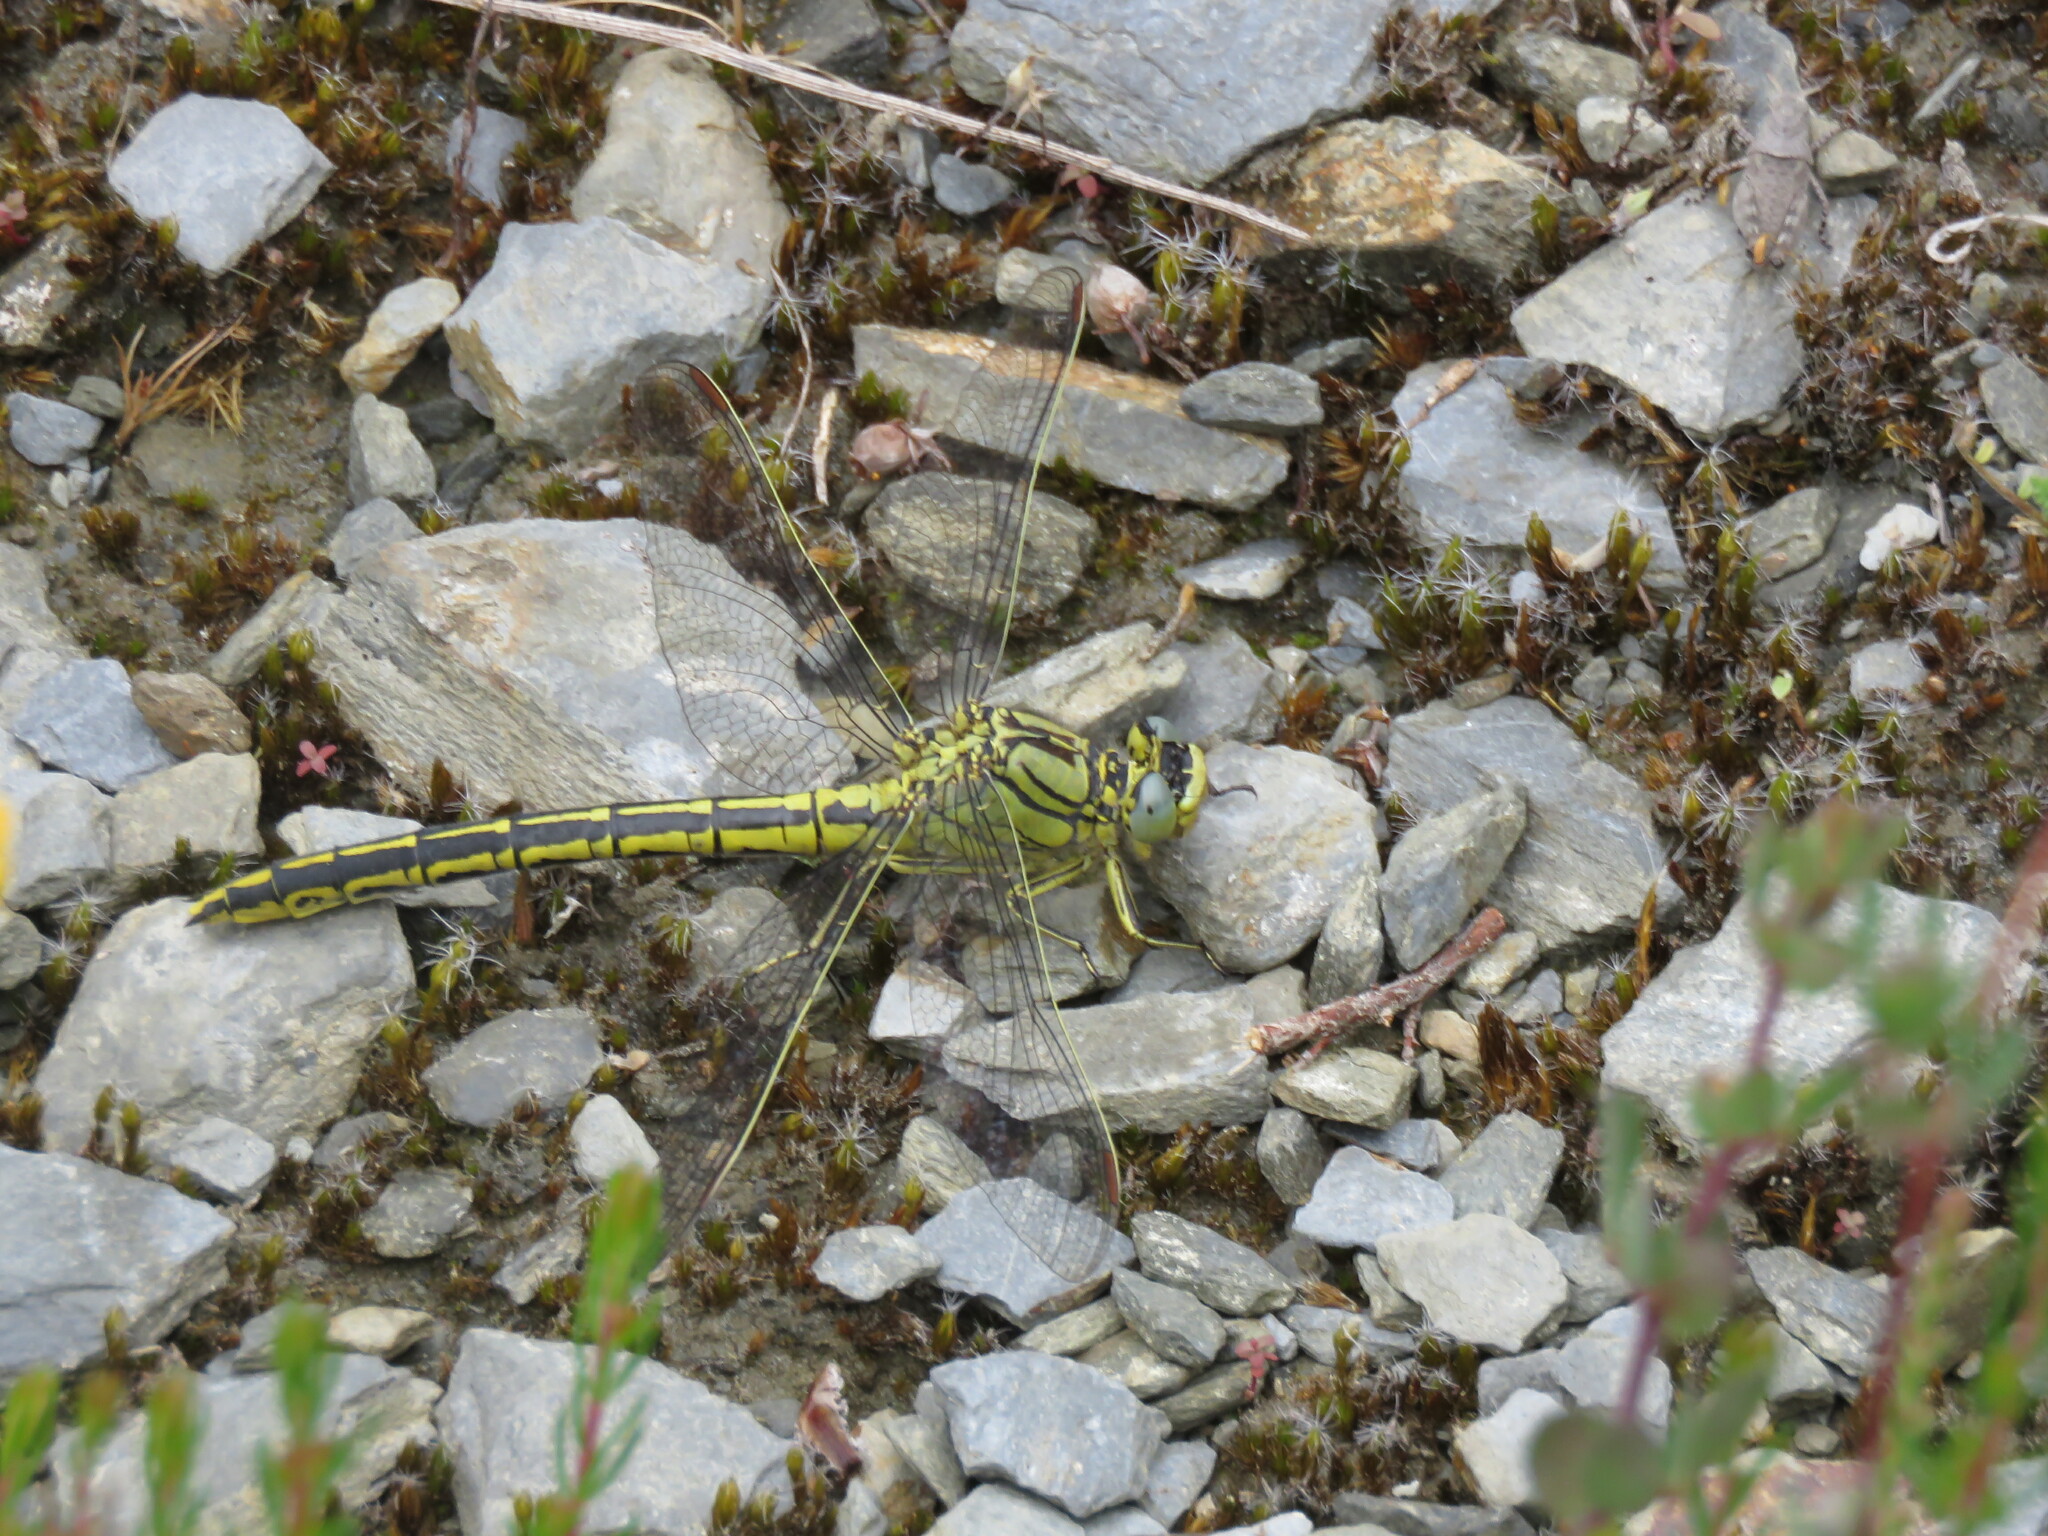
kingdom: Animalia
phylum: Arthropoda
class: Insecta
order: Odonata
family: Gomphidae
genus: Gomphus
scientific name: Gomphus pulchellus
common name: Western clubtail
